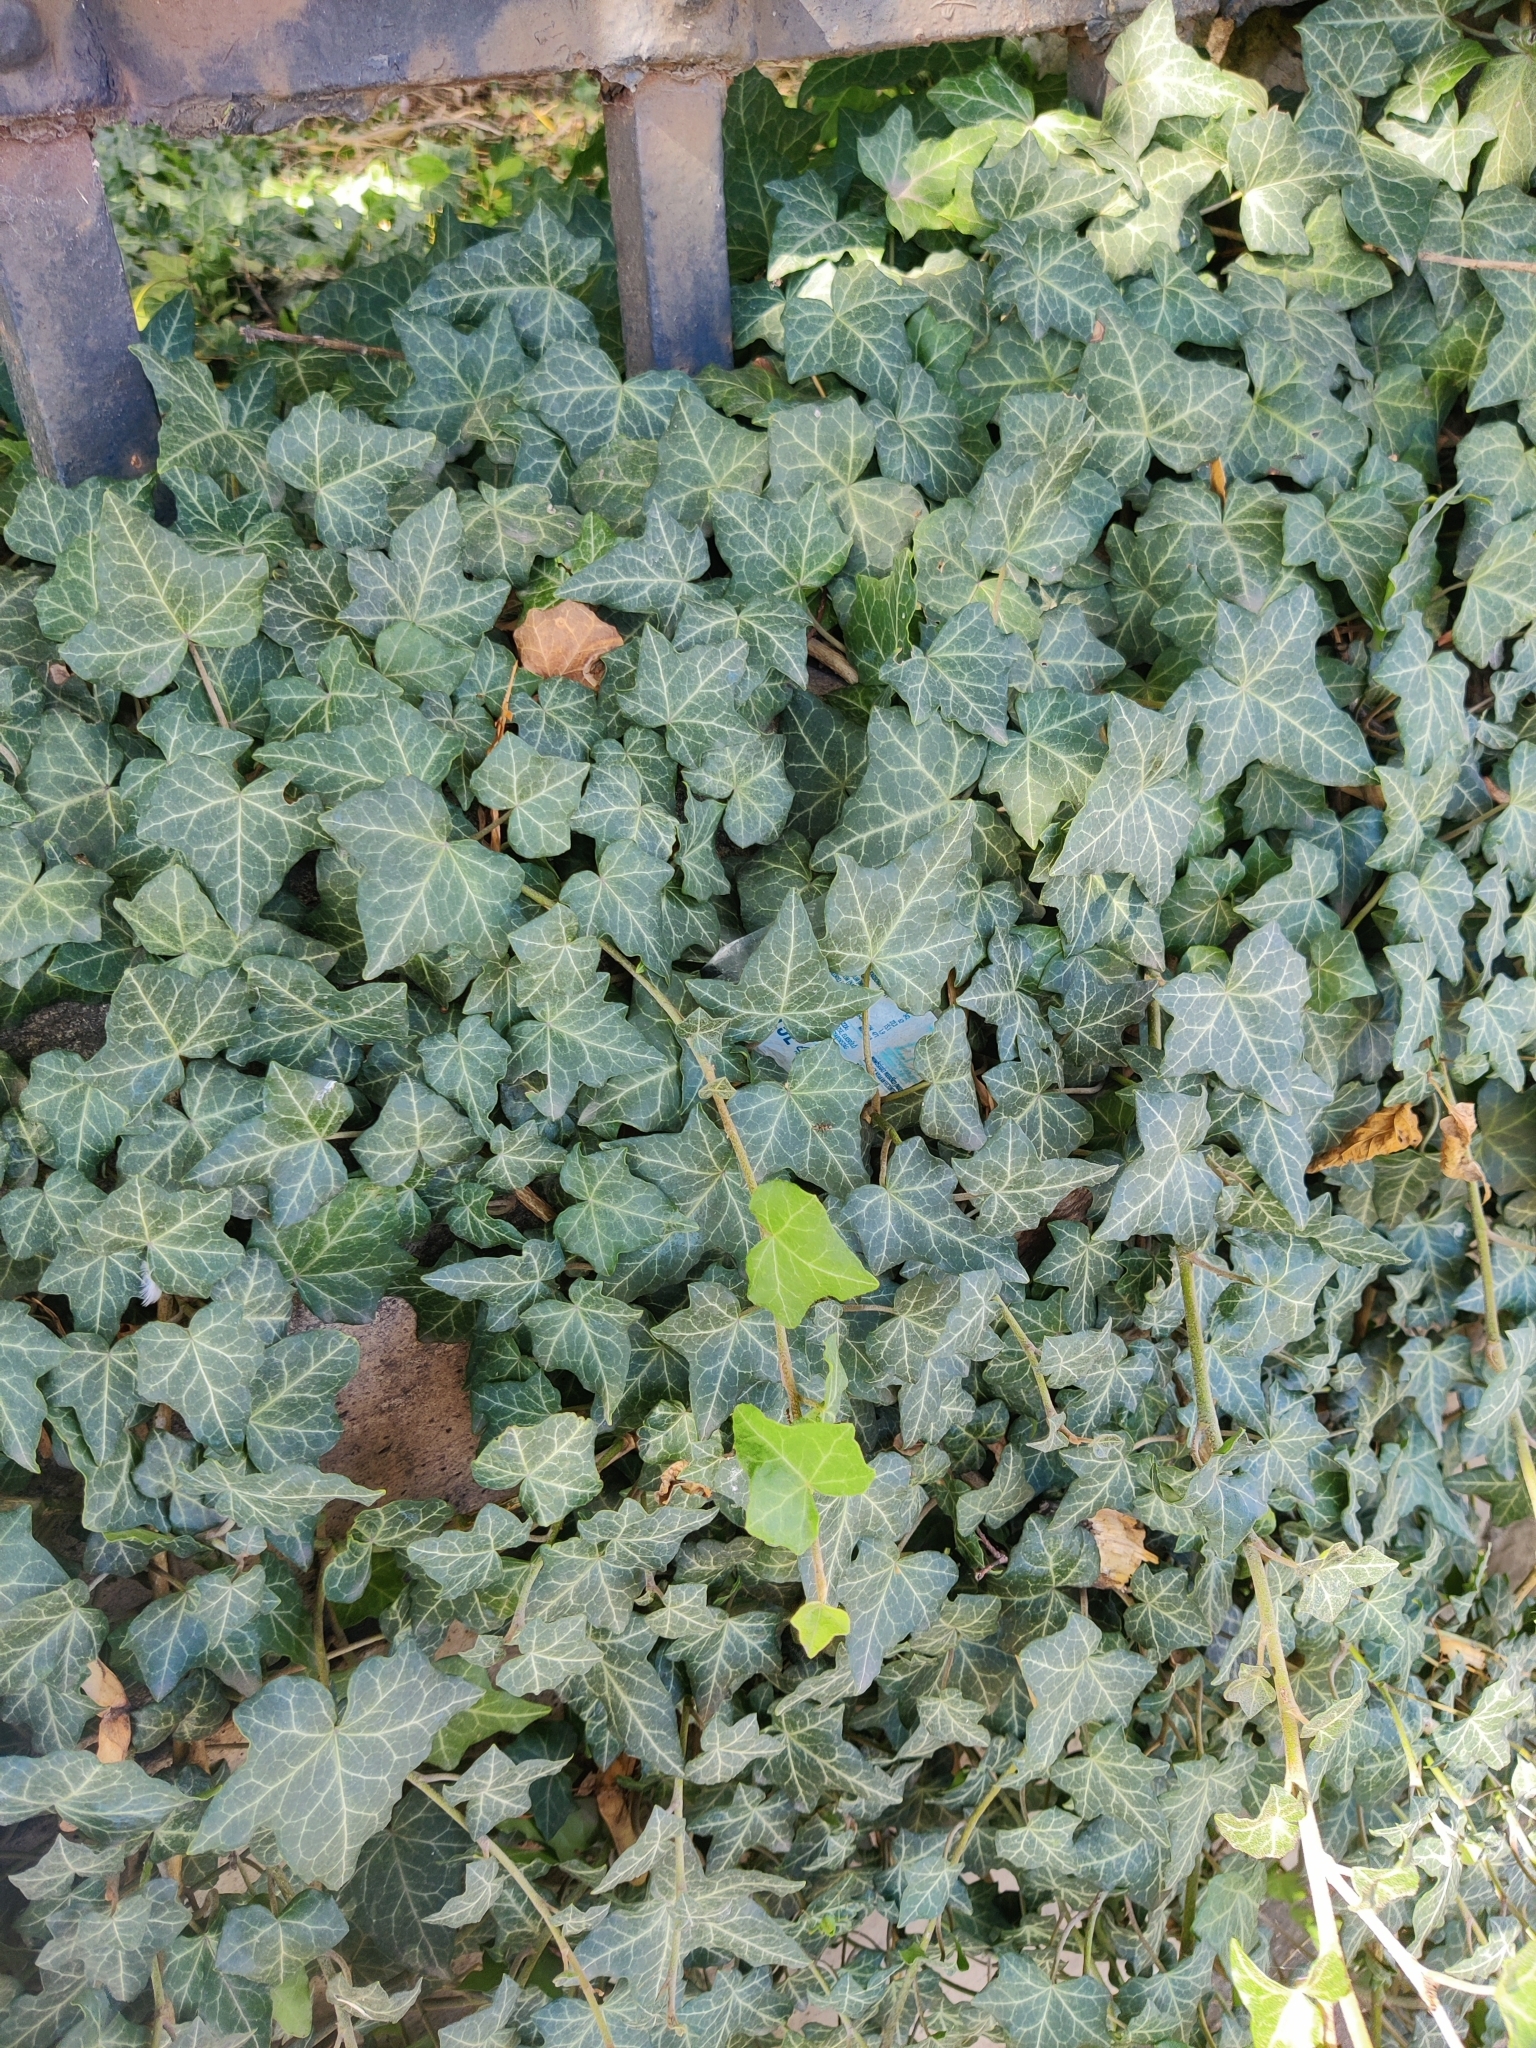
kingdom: Plantae
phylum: Tracheophyta
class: Magnoliopsida
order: Apiales
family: Araliaceae
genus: Hedera
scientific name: Hedera helix
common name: Ivy
